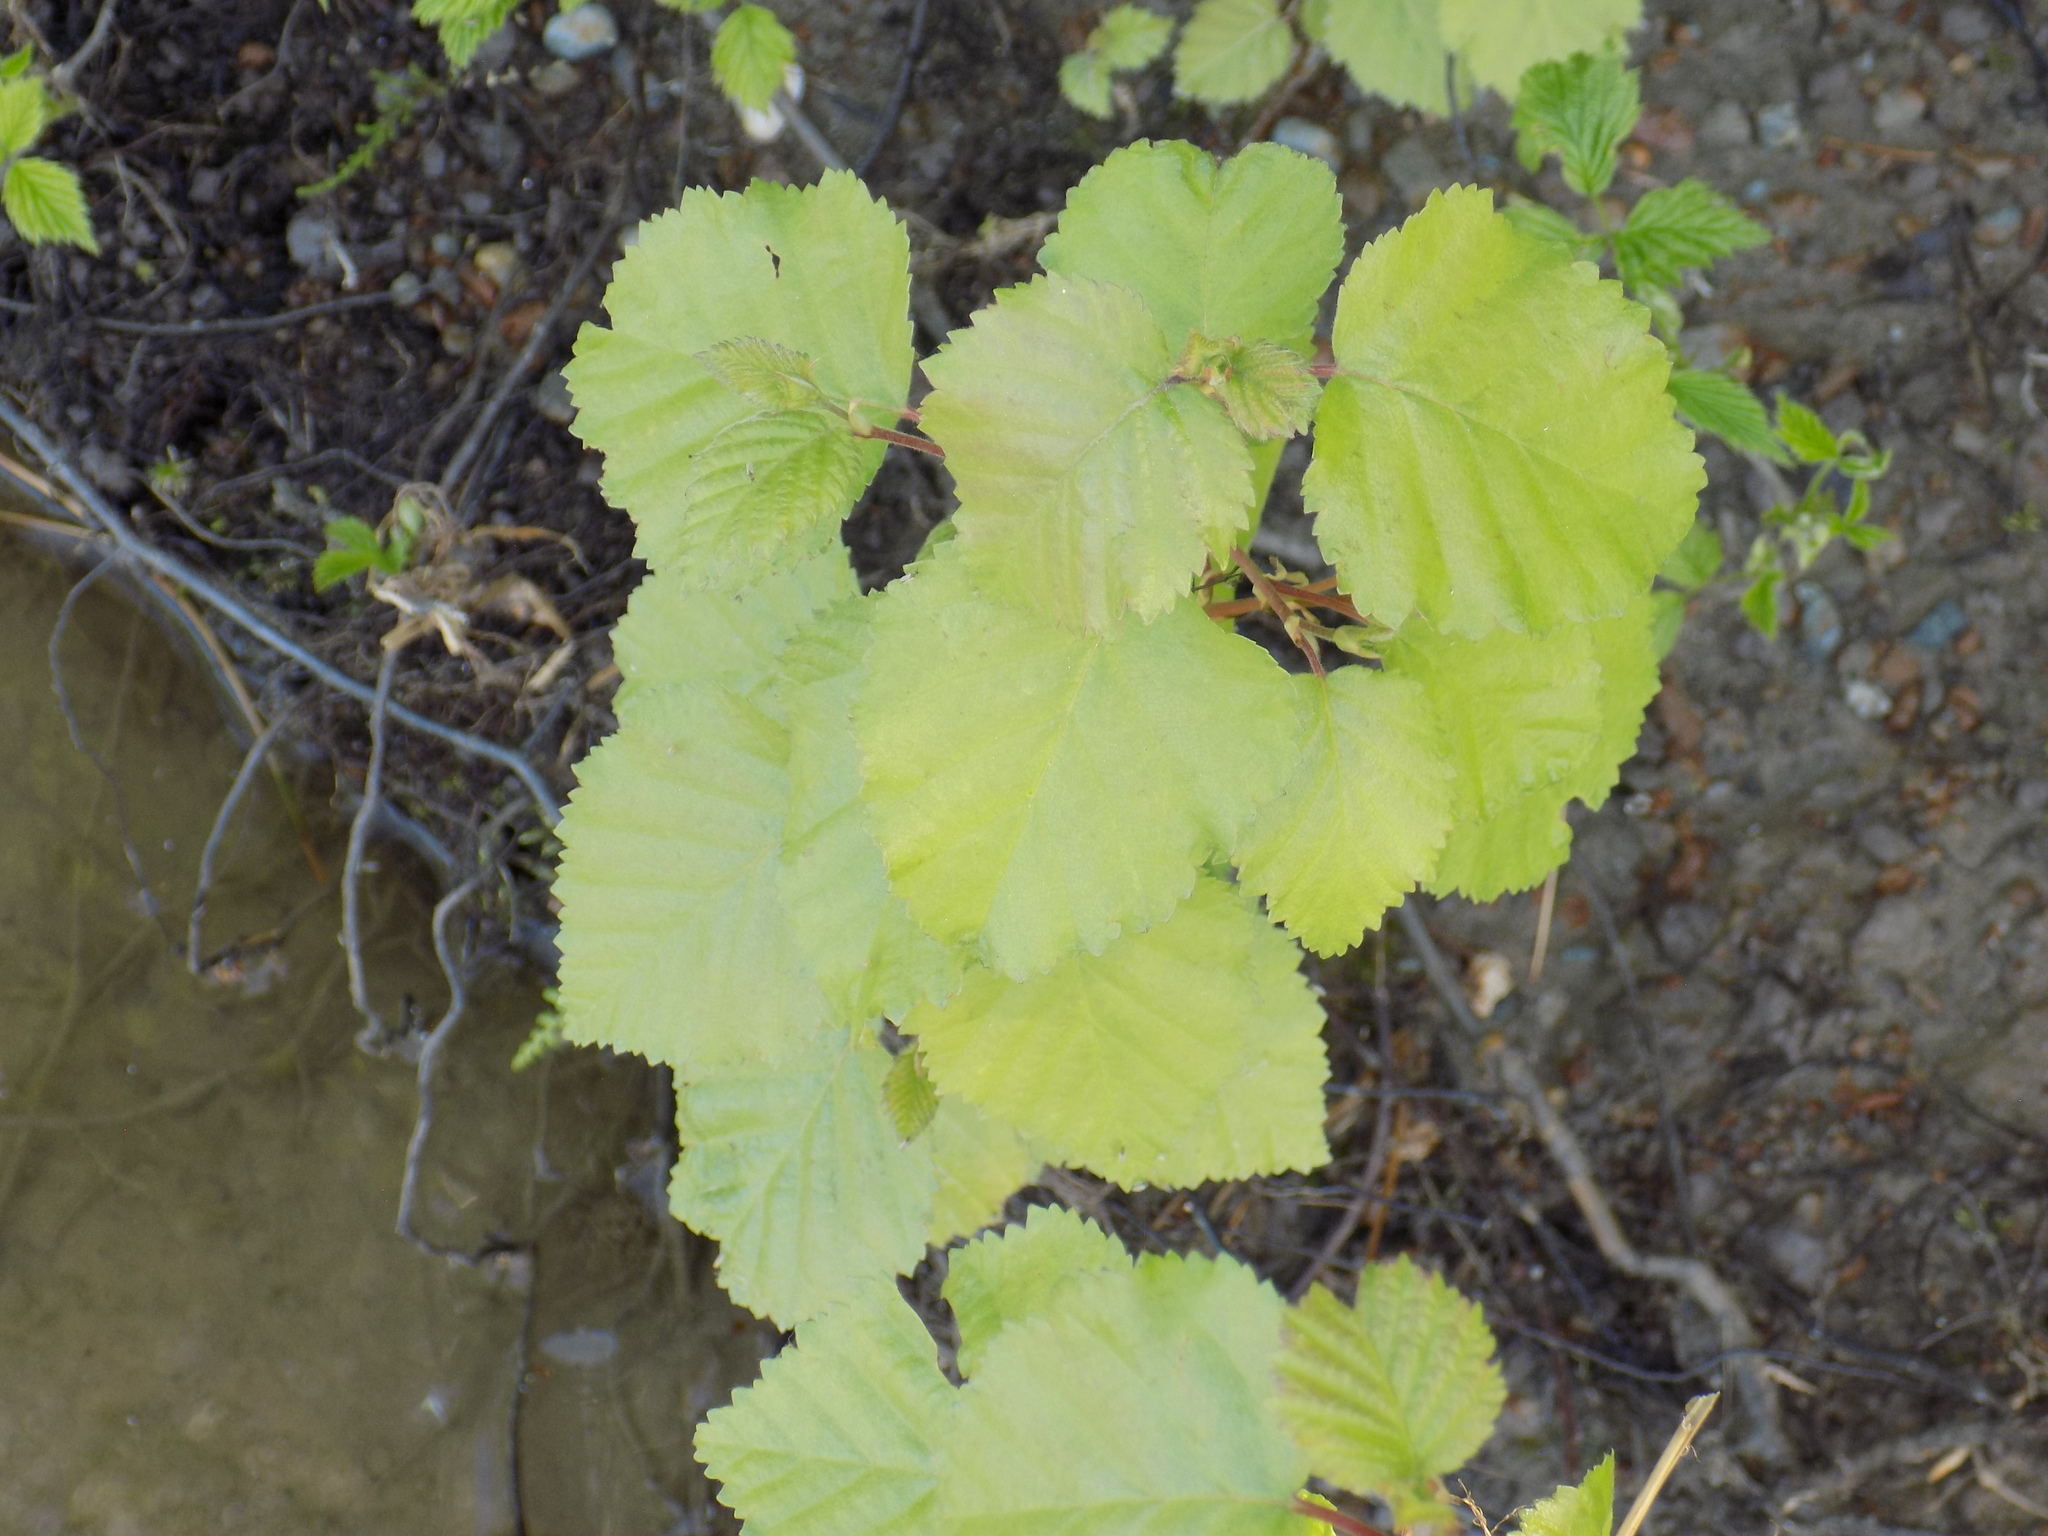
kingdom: Plantae
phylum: Tracheophyta
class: Magnoliopsida
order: Fagales
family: Betulaceae
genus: Betula
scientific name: Betula pubescens
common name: Downy birch
